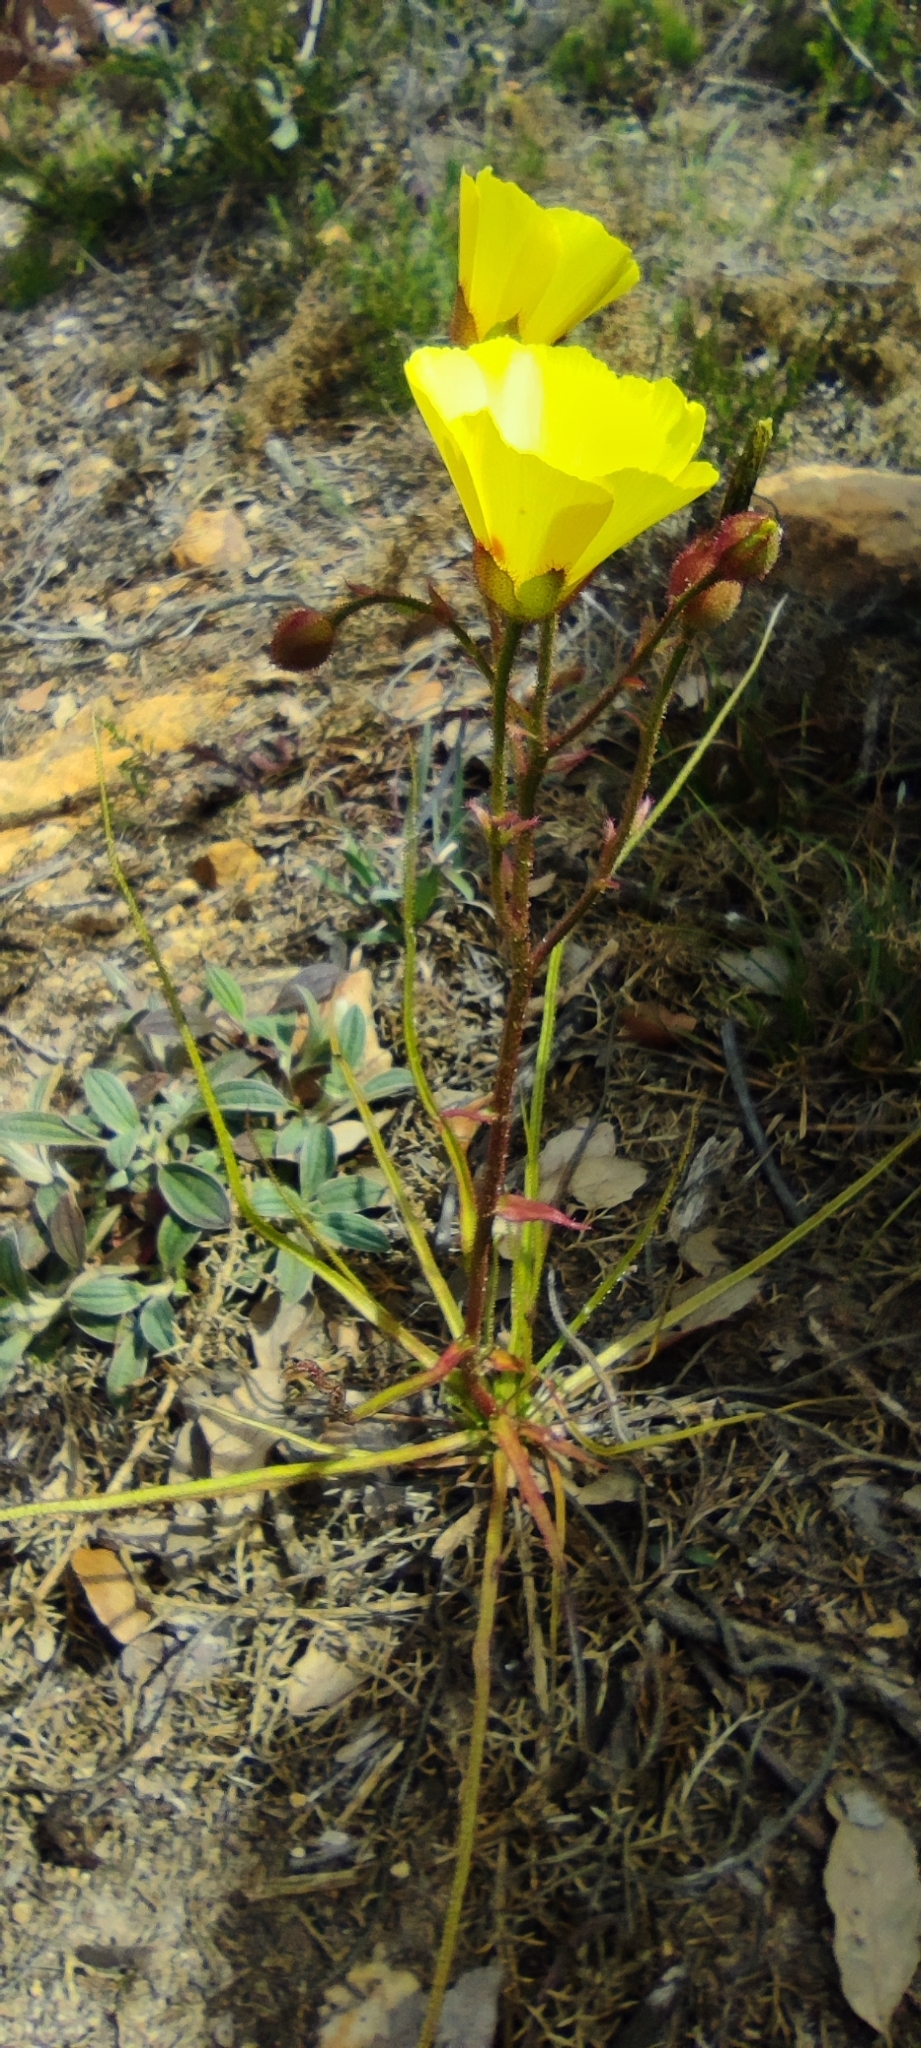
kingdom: Plantae
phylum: Tracheophyta
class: Magnoliopsida
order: Caryophyllales
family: Drosophyllaceae
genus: Drosophyllum
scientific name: Drosophyllum lusitanicum
